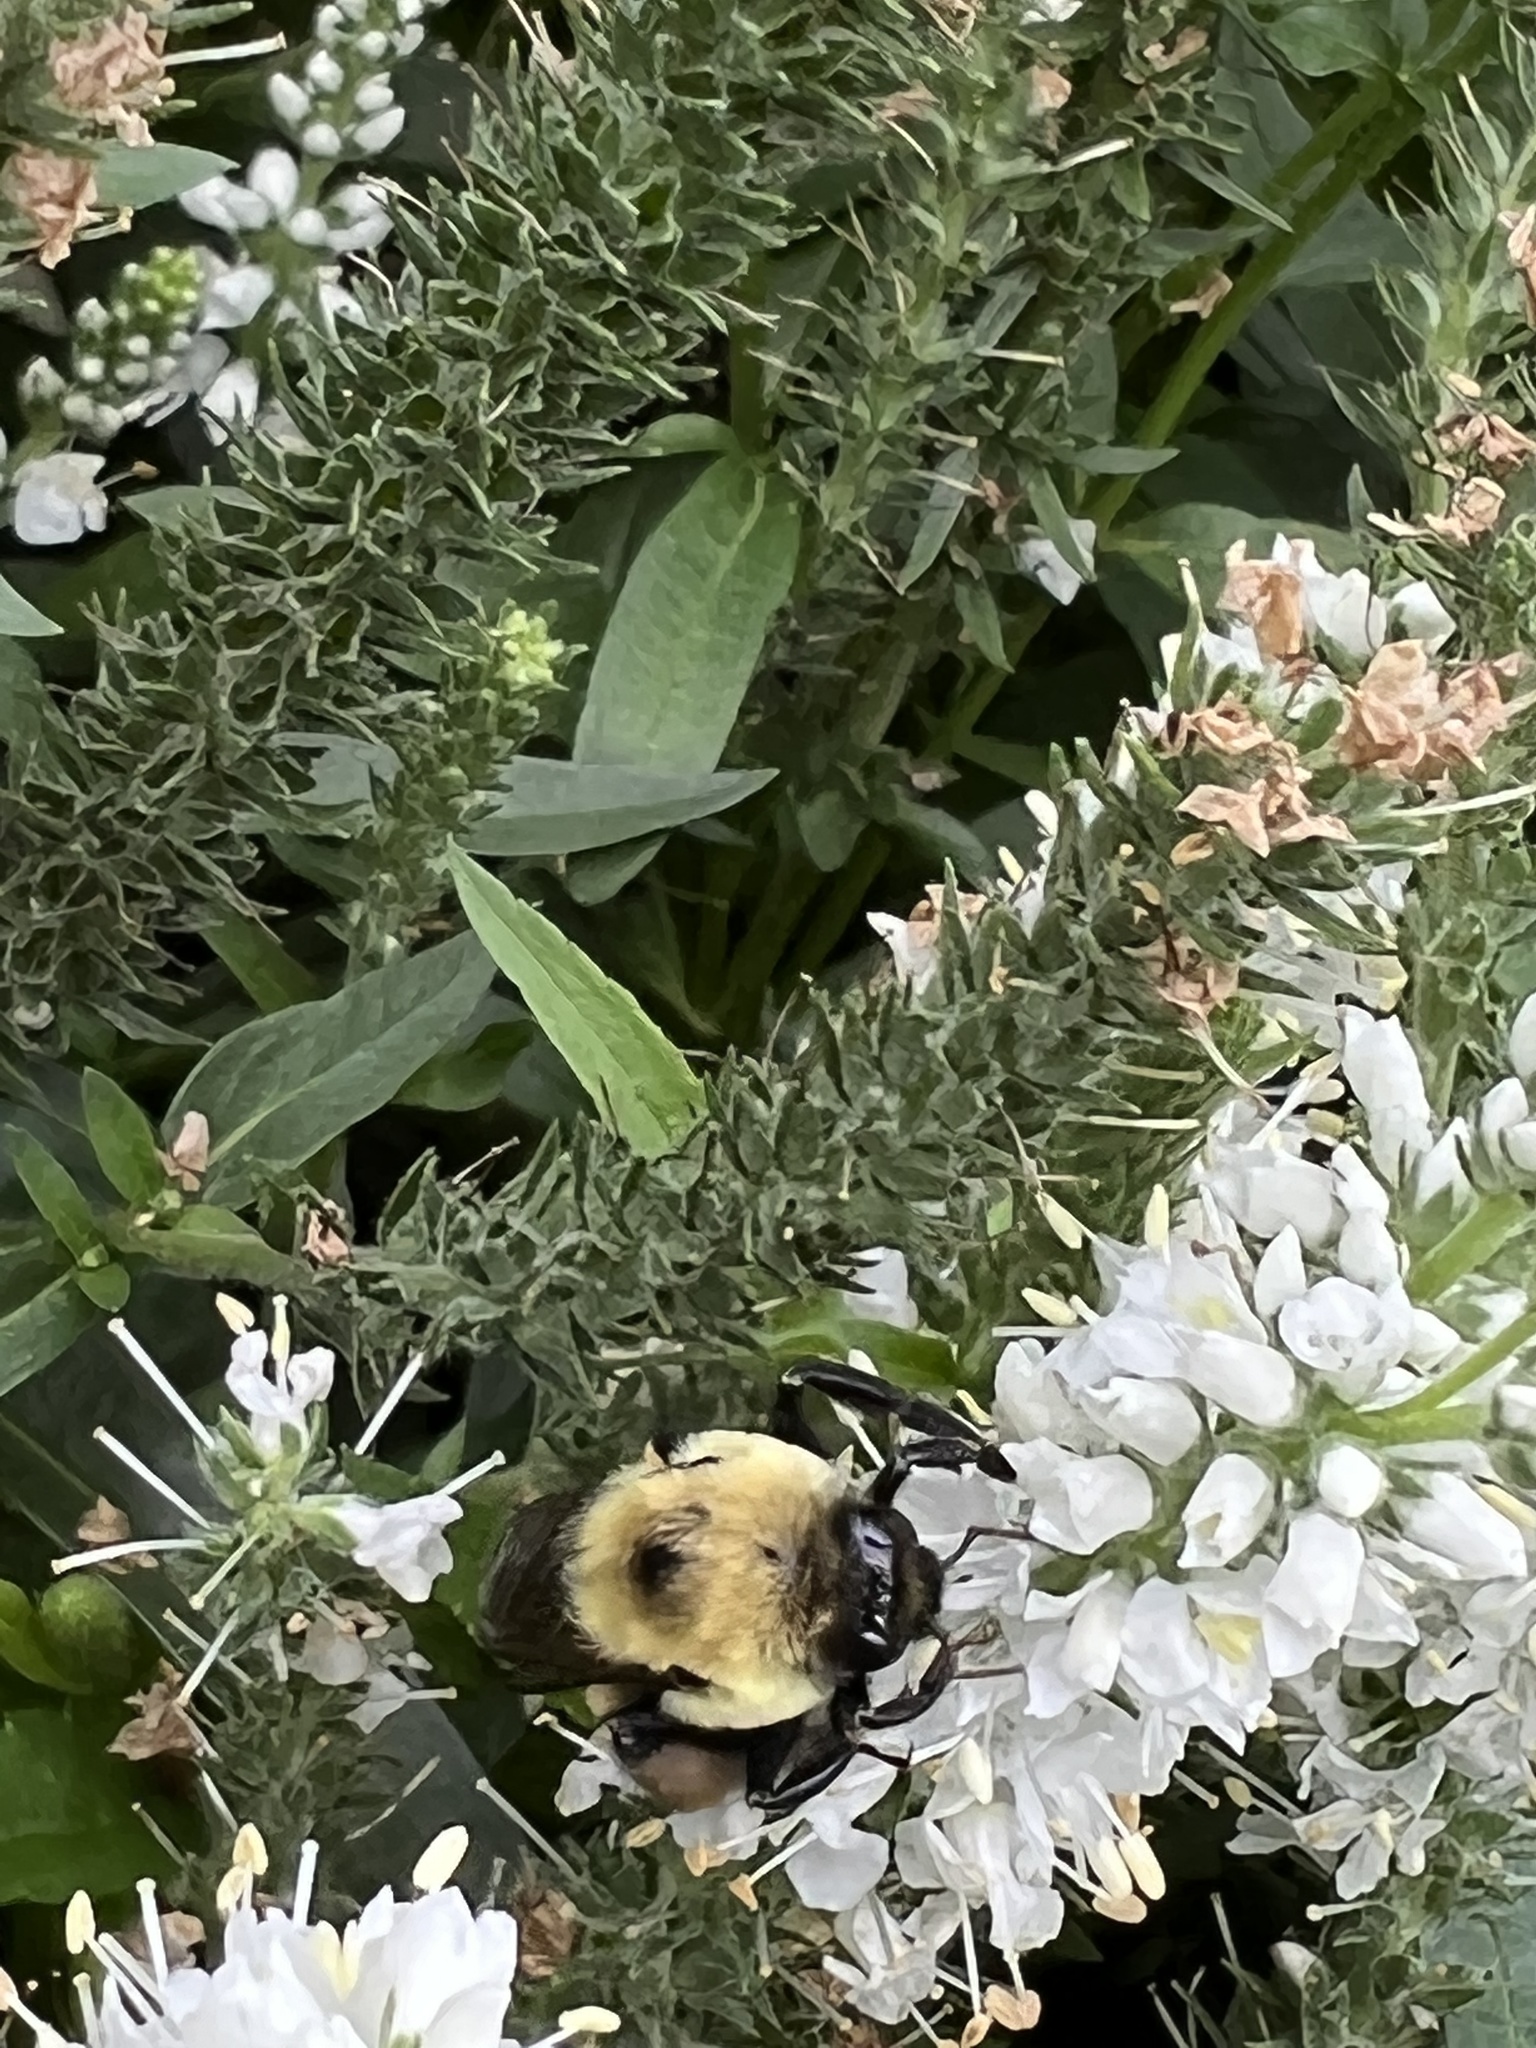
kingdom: Animalia
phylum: Arthropoda
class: Insecta
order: Hymenoptera
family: Apidae
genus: Bombus
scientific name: Bombus griseocollis
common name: Brown-belted bumble bee
